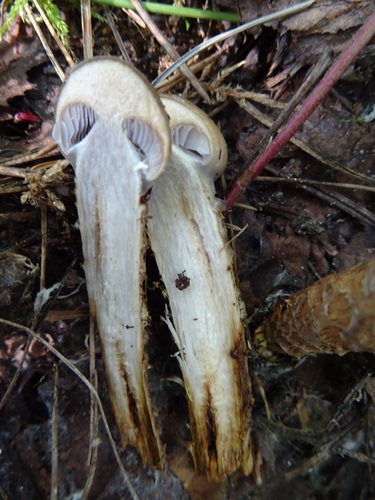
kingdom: Fungi
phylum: Basidiomycota
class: Agaricomycetes
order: Agaricales
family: Cortinariaceae
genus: Cortinarius
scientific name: Cortinarius trivialis
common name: Girdled webcap
